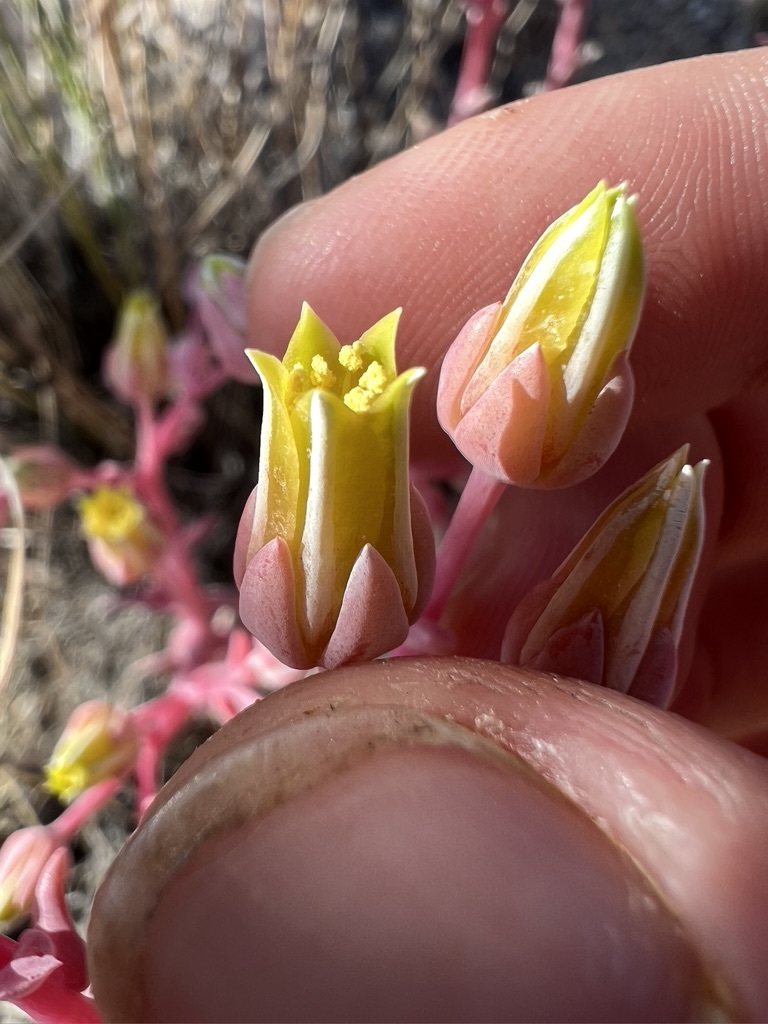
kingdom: Plantae
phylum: Tracheophyta
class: Magnoliopsida
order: Saxifragales
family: Crassulaceae
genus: Dudleya
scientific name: Dudleya saxosa
